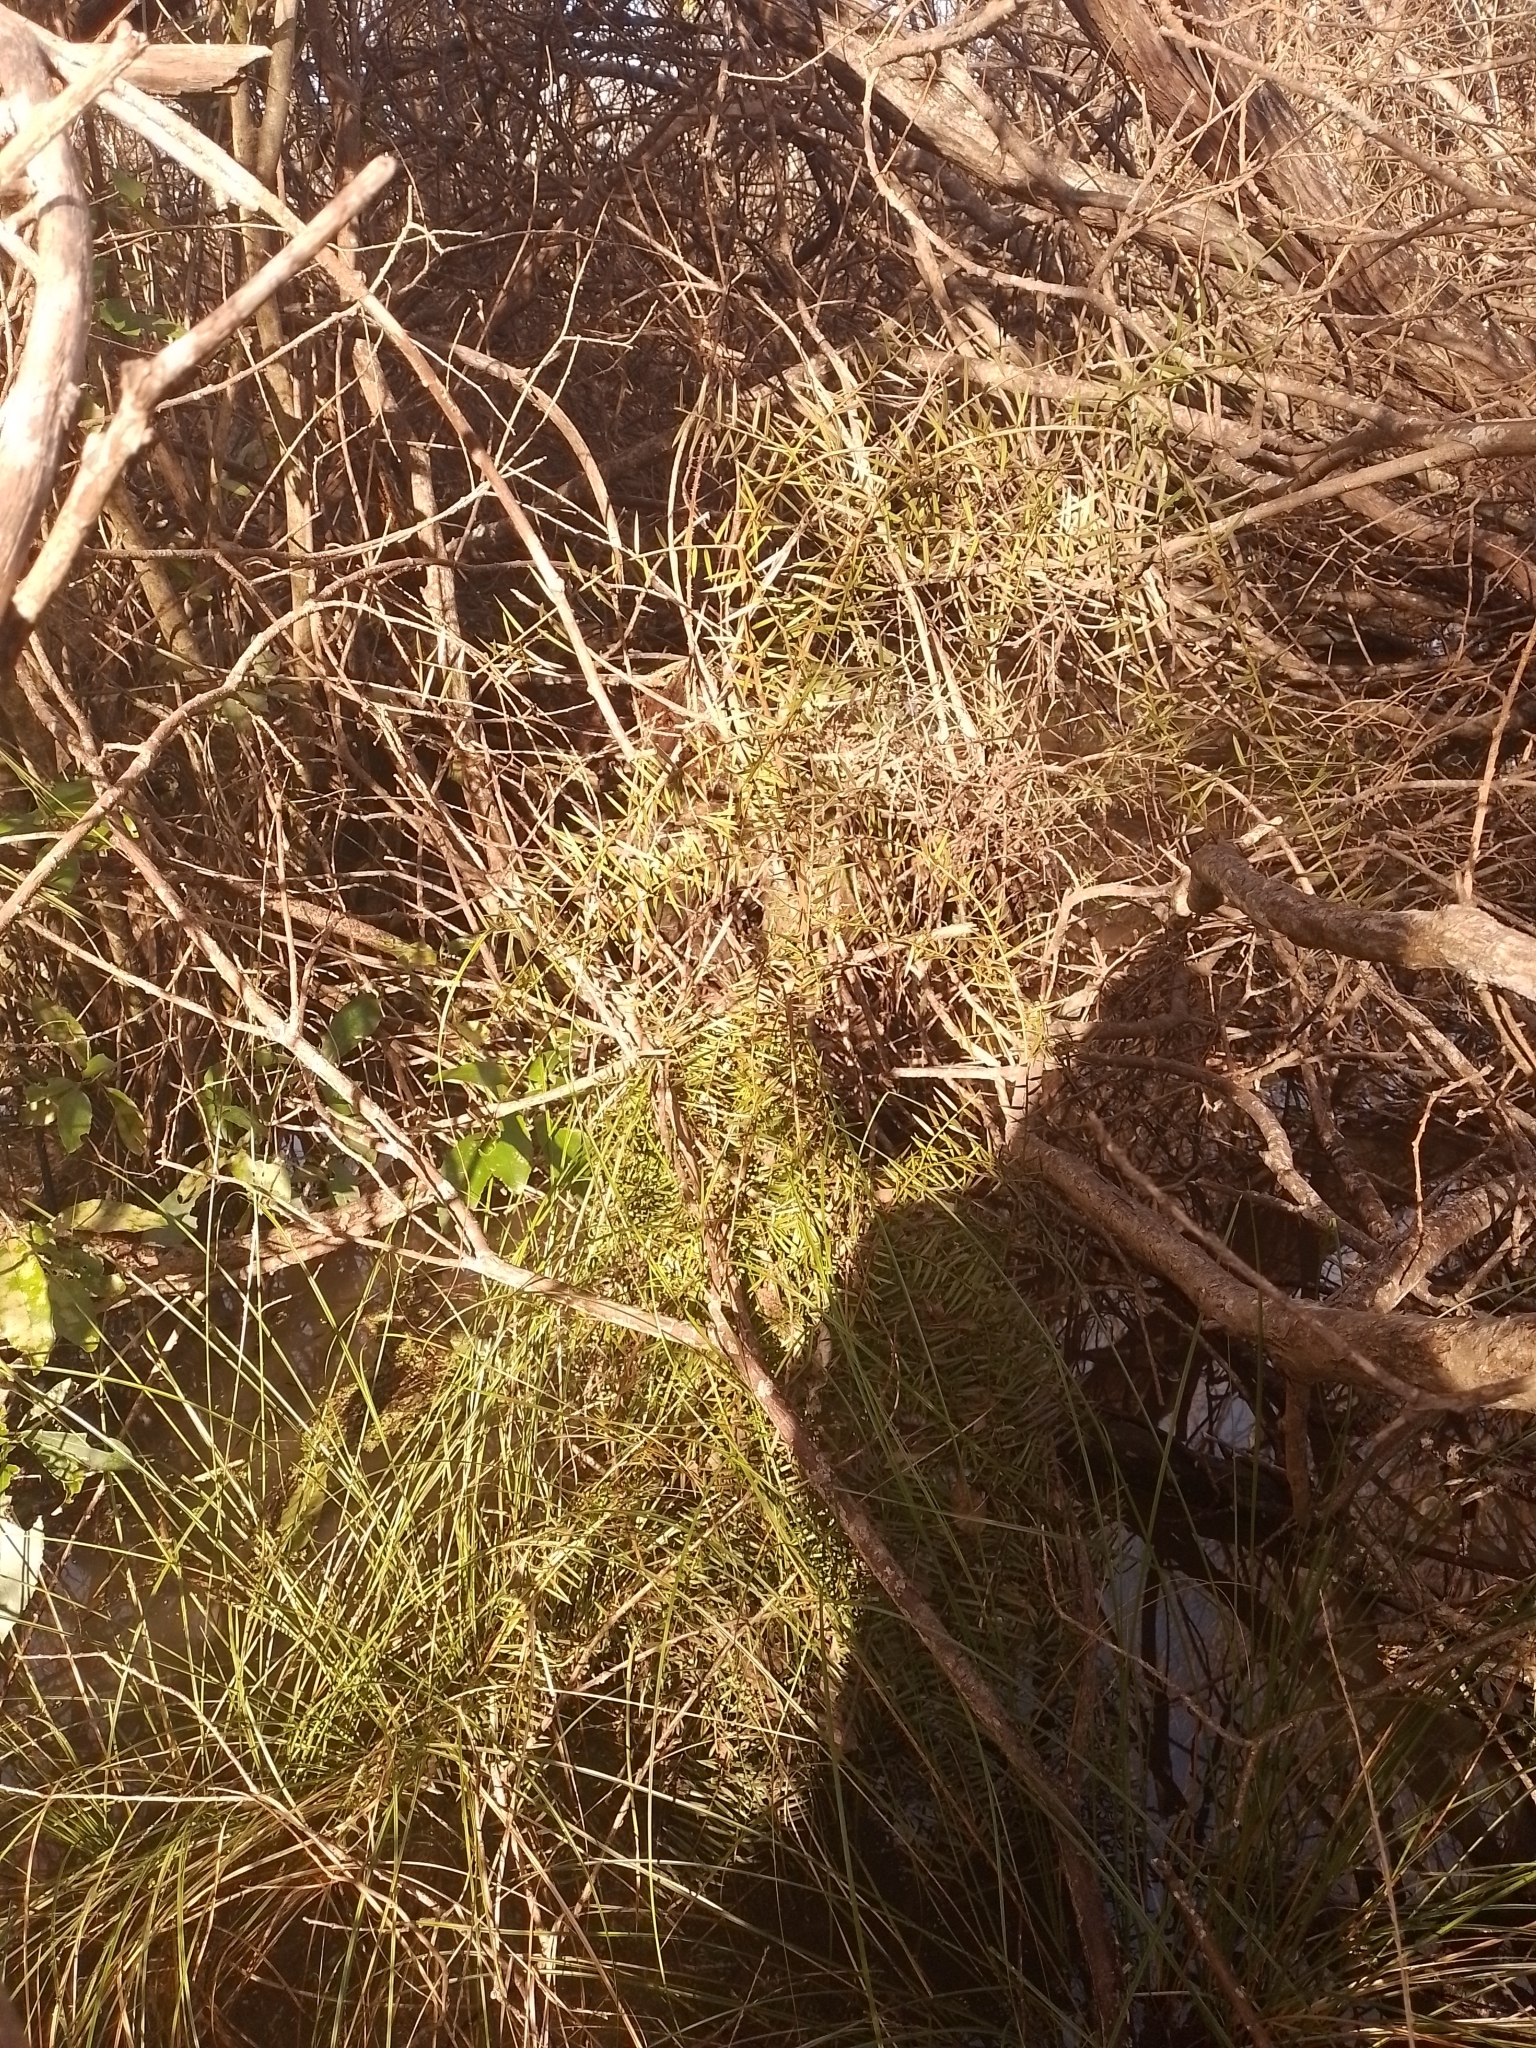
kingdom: Plantae
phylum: Tracheophyta
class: Pinopsida
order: Pinales
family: Podocarpaceae
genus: Podocarpus
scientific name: Podocarpus totara
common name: Totara
